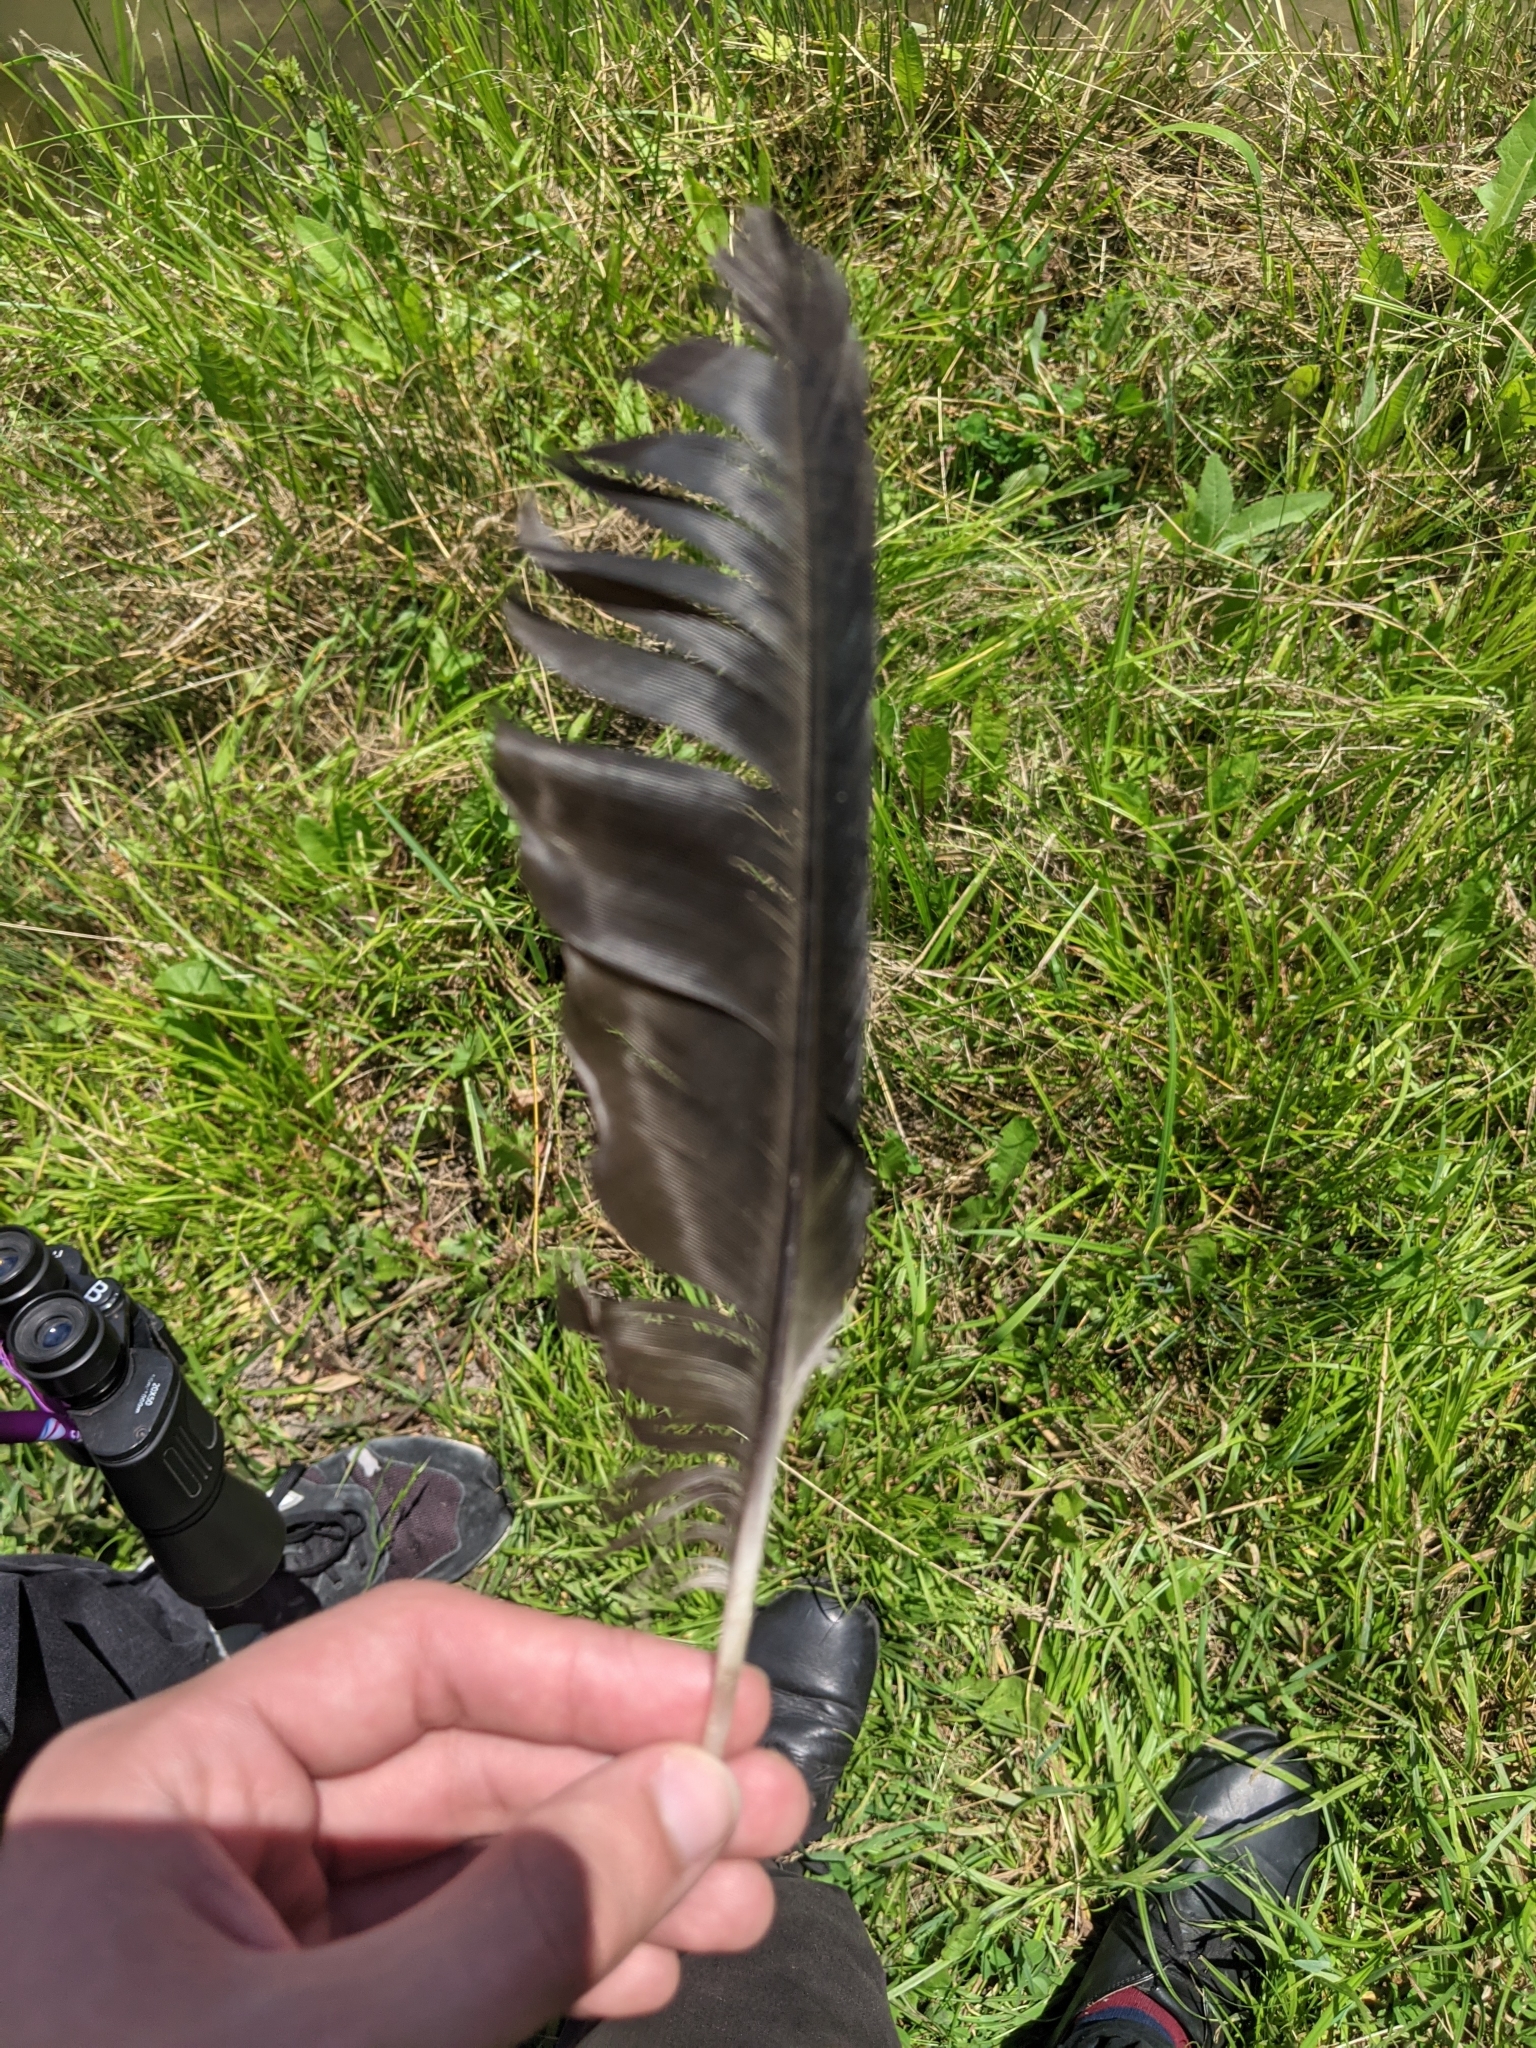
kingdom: Animalia
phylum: Chordata
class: Aves
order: Passeriformes
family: Corvidae
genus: Corvus
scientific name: Corvus
